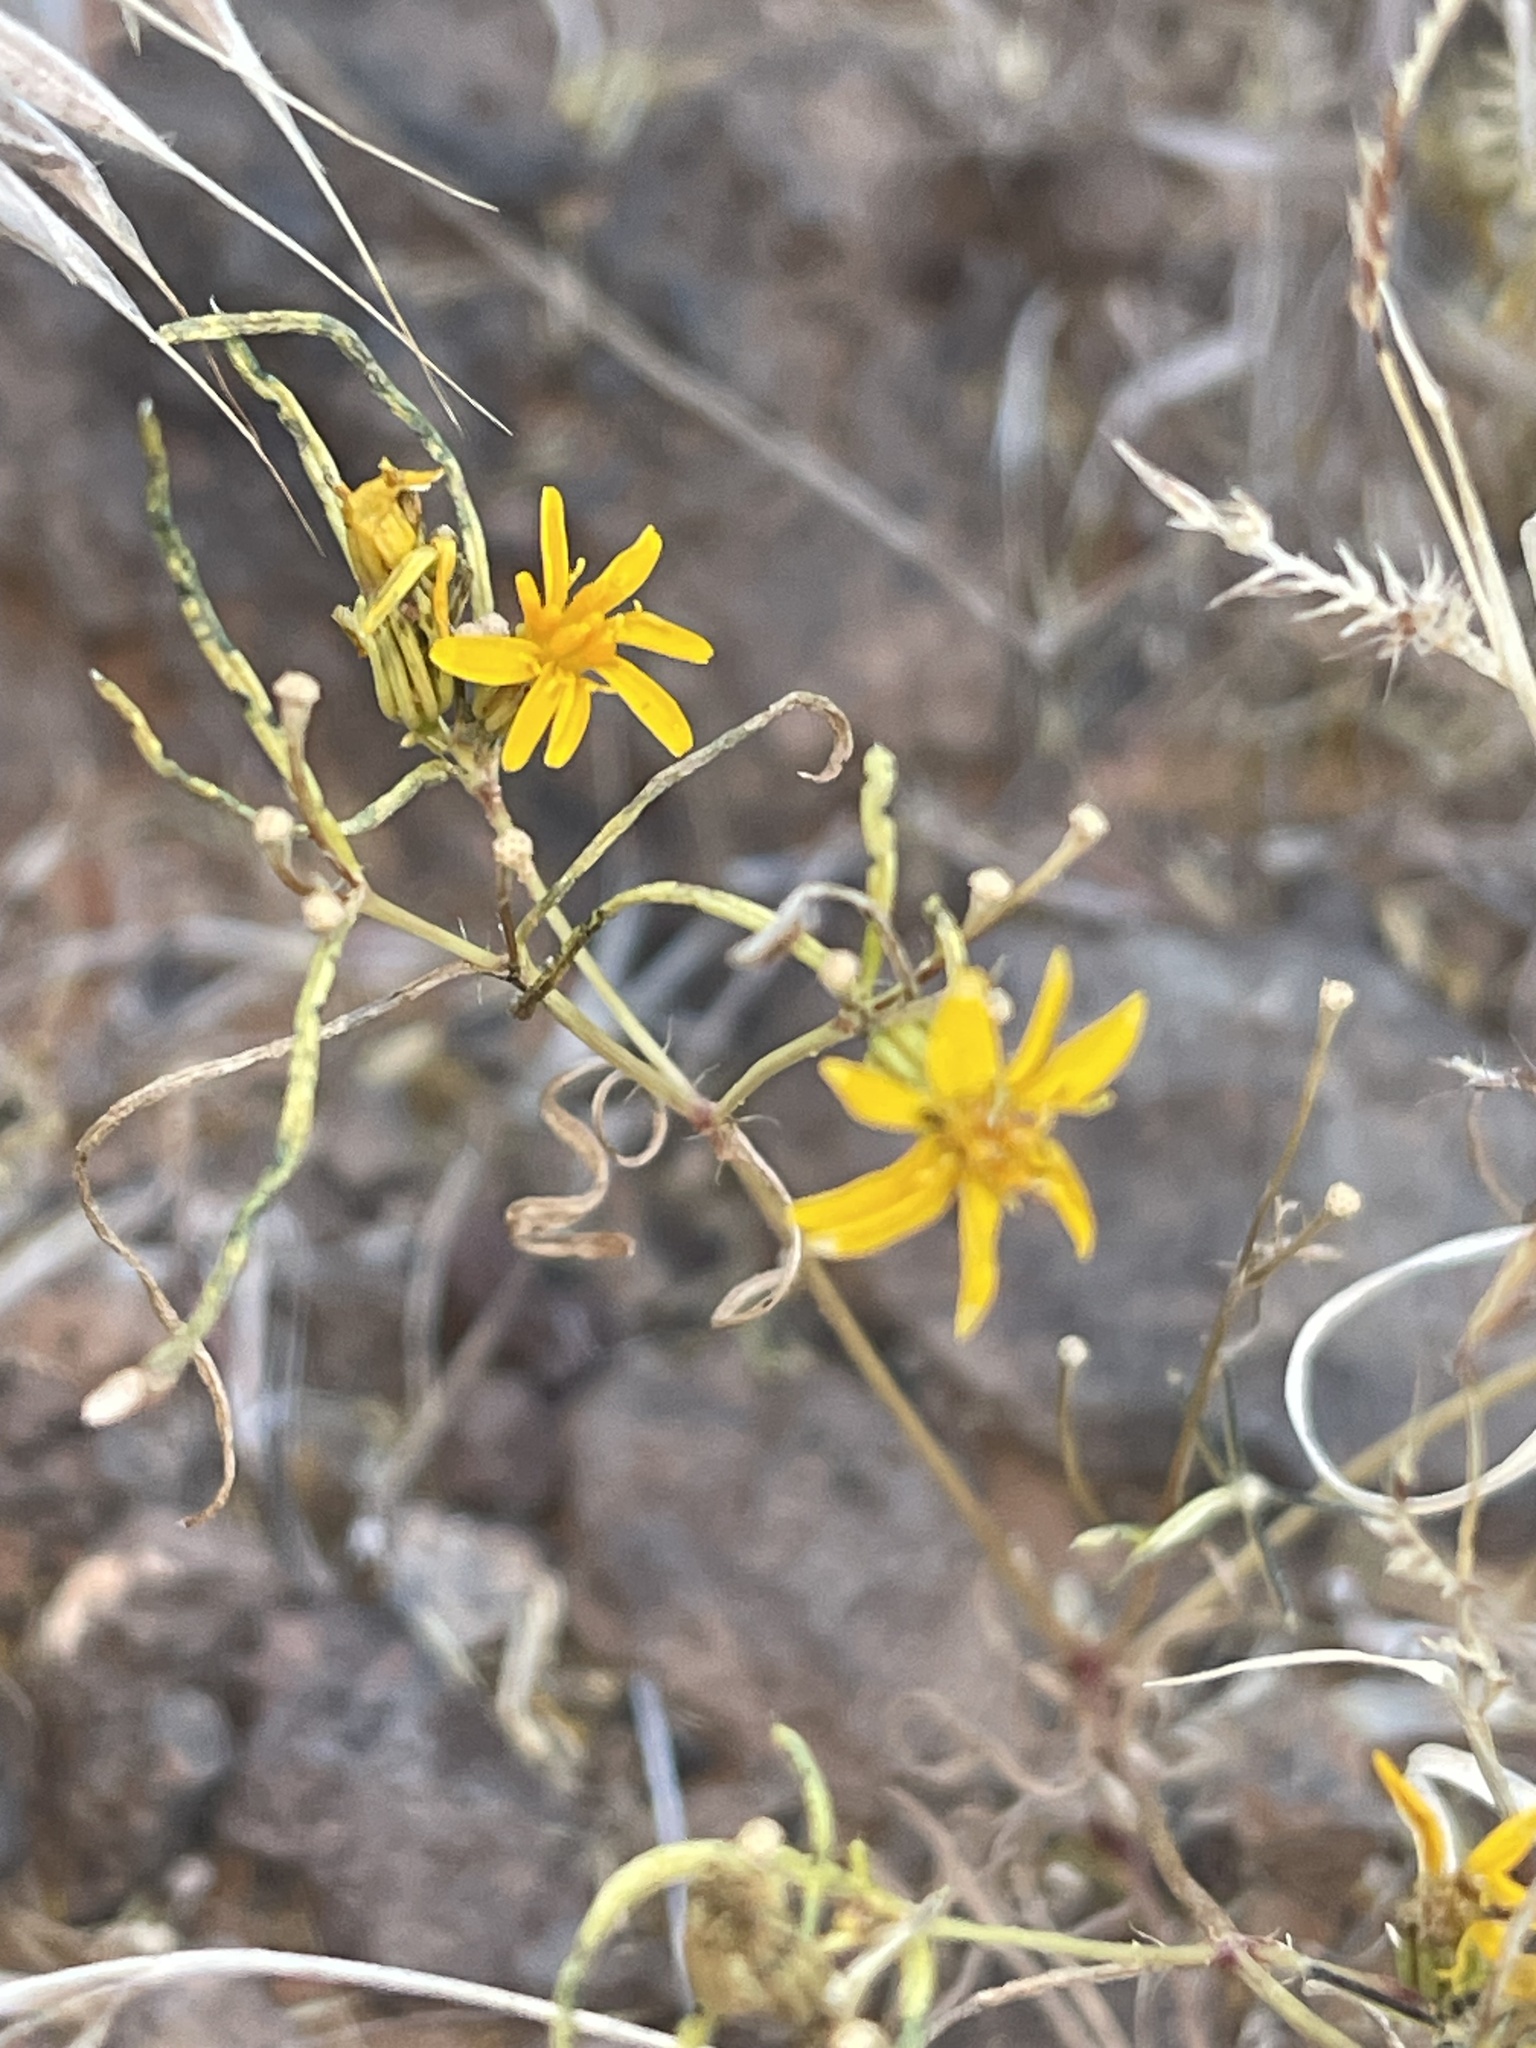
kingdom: Plantae
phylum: Tracheophyta
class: Magnoliopsida
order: Asterales
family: Asteraceae
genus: Gutierrezia
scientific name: Gutierrezia sarothrae
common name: Broom snakeweed
